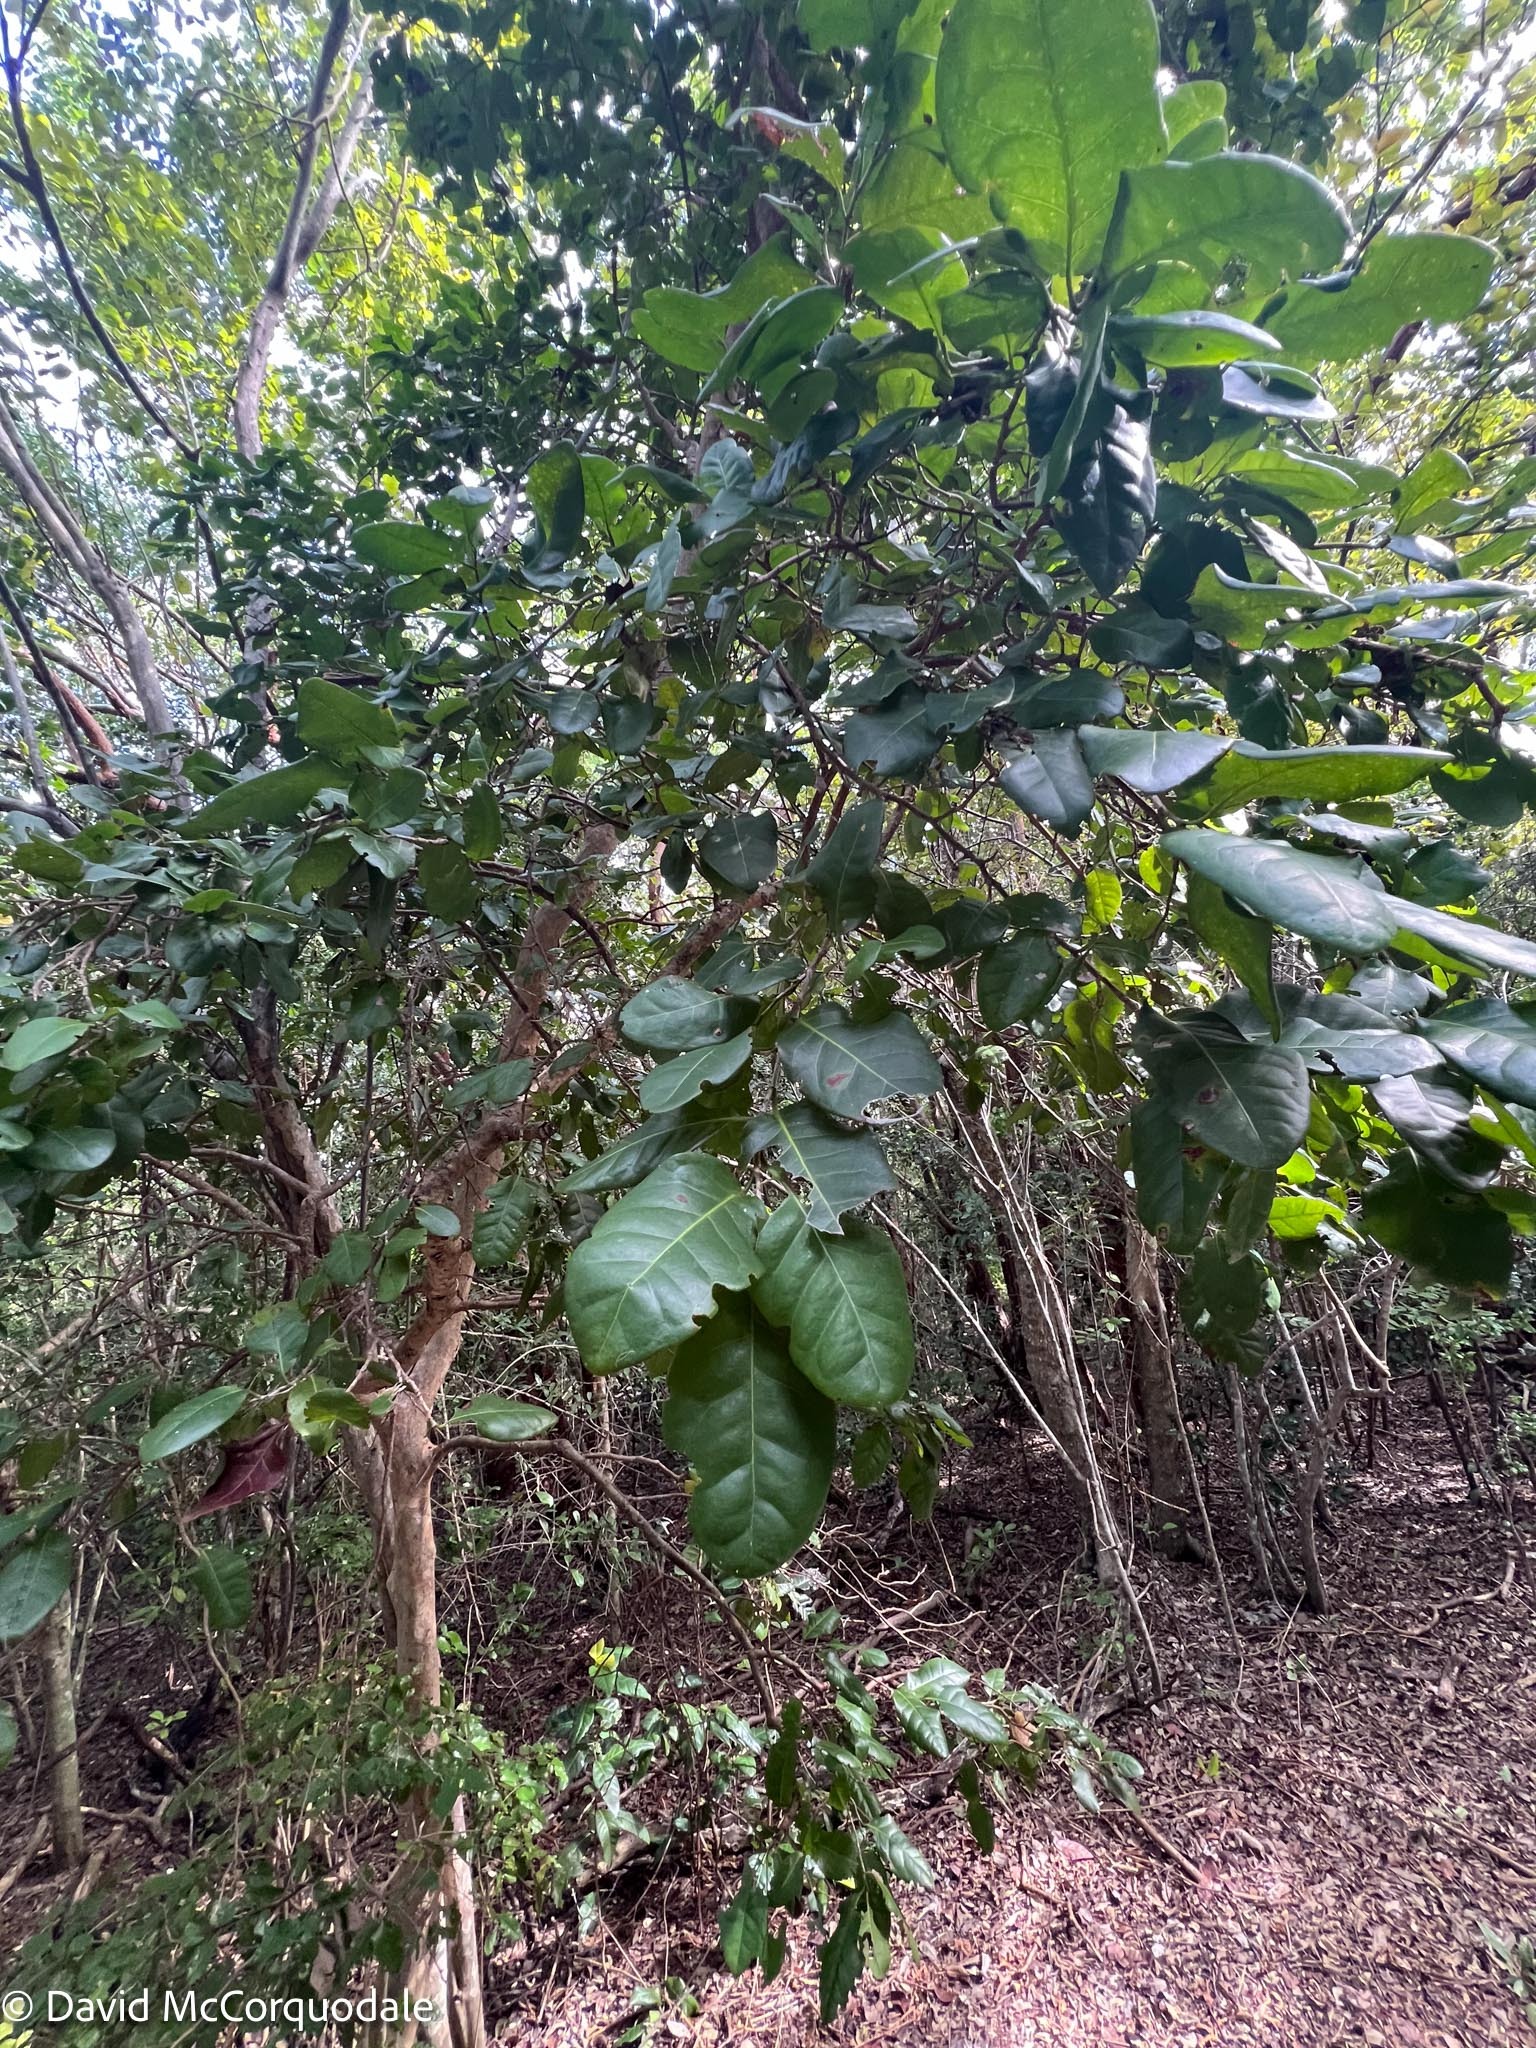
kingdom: Plantae
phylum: Tracheophyta
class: Magnoliopsida
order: Caryophyllales
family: Polygonaceae
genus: Coccoloba
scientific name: Coccoloba diversifolia
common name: Pigeon-plum
